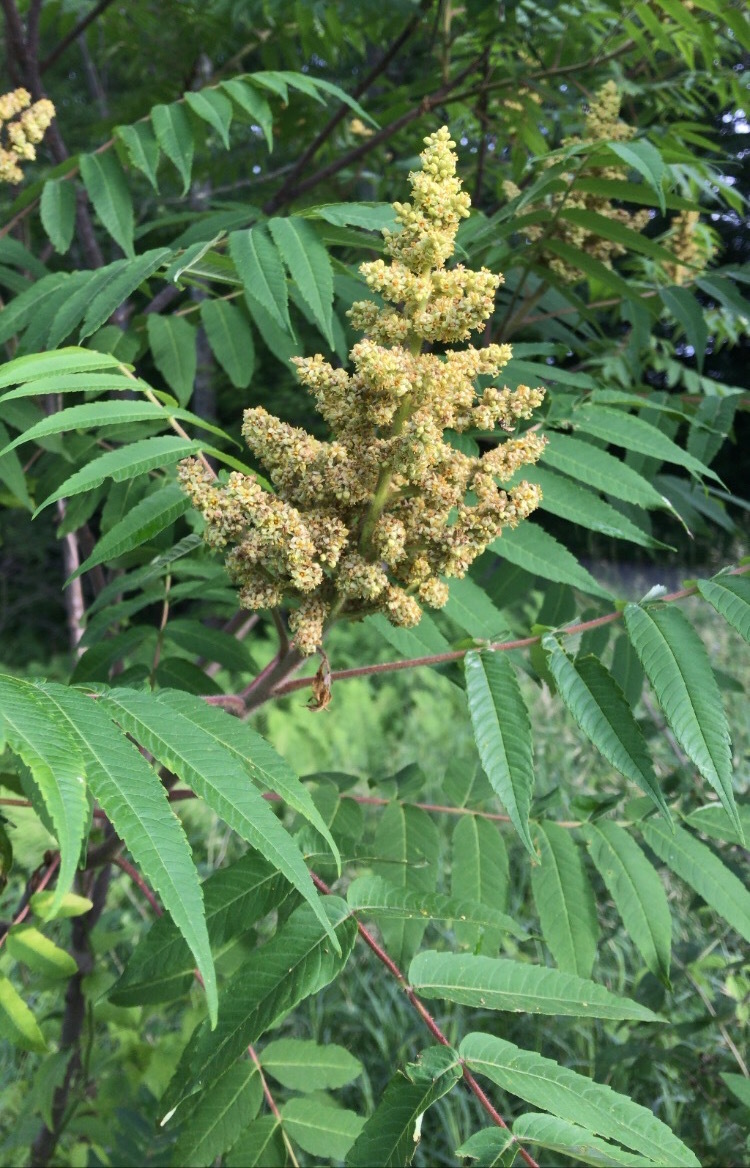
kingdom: Plantae
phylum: Tracheophyta
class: Magnoliopsida
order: Sapindales
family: Anacardiaceae
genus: Rhus
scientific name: Rhus typhina
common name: Staghorn sumac
